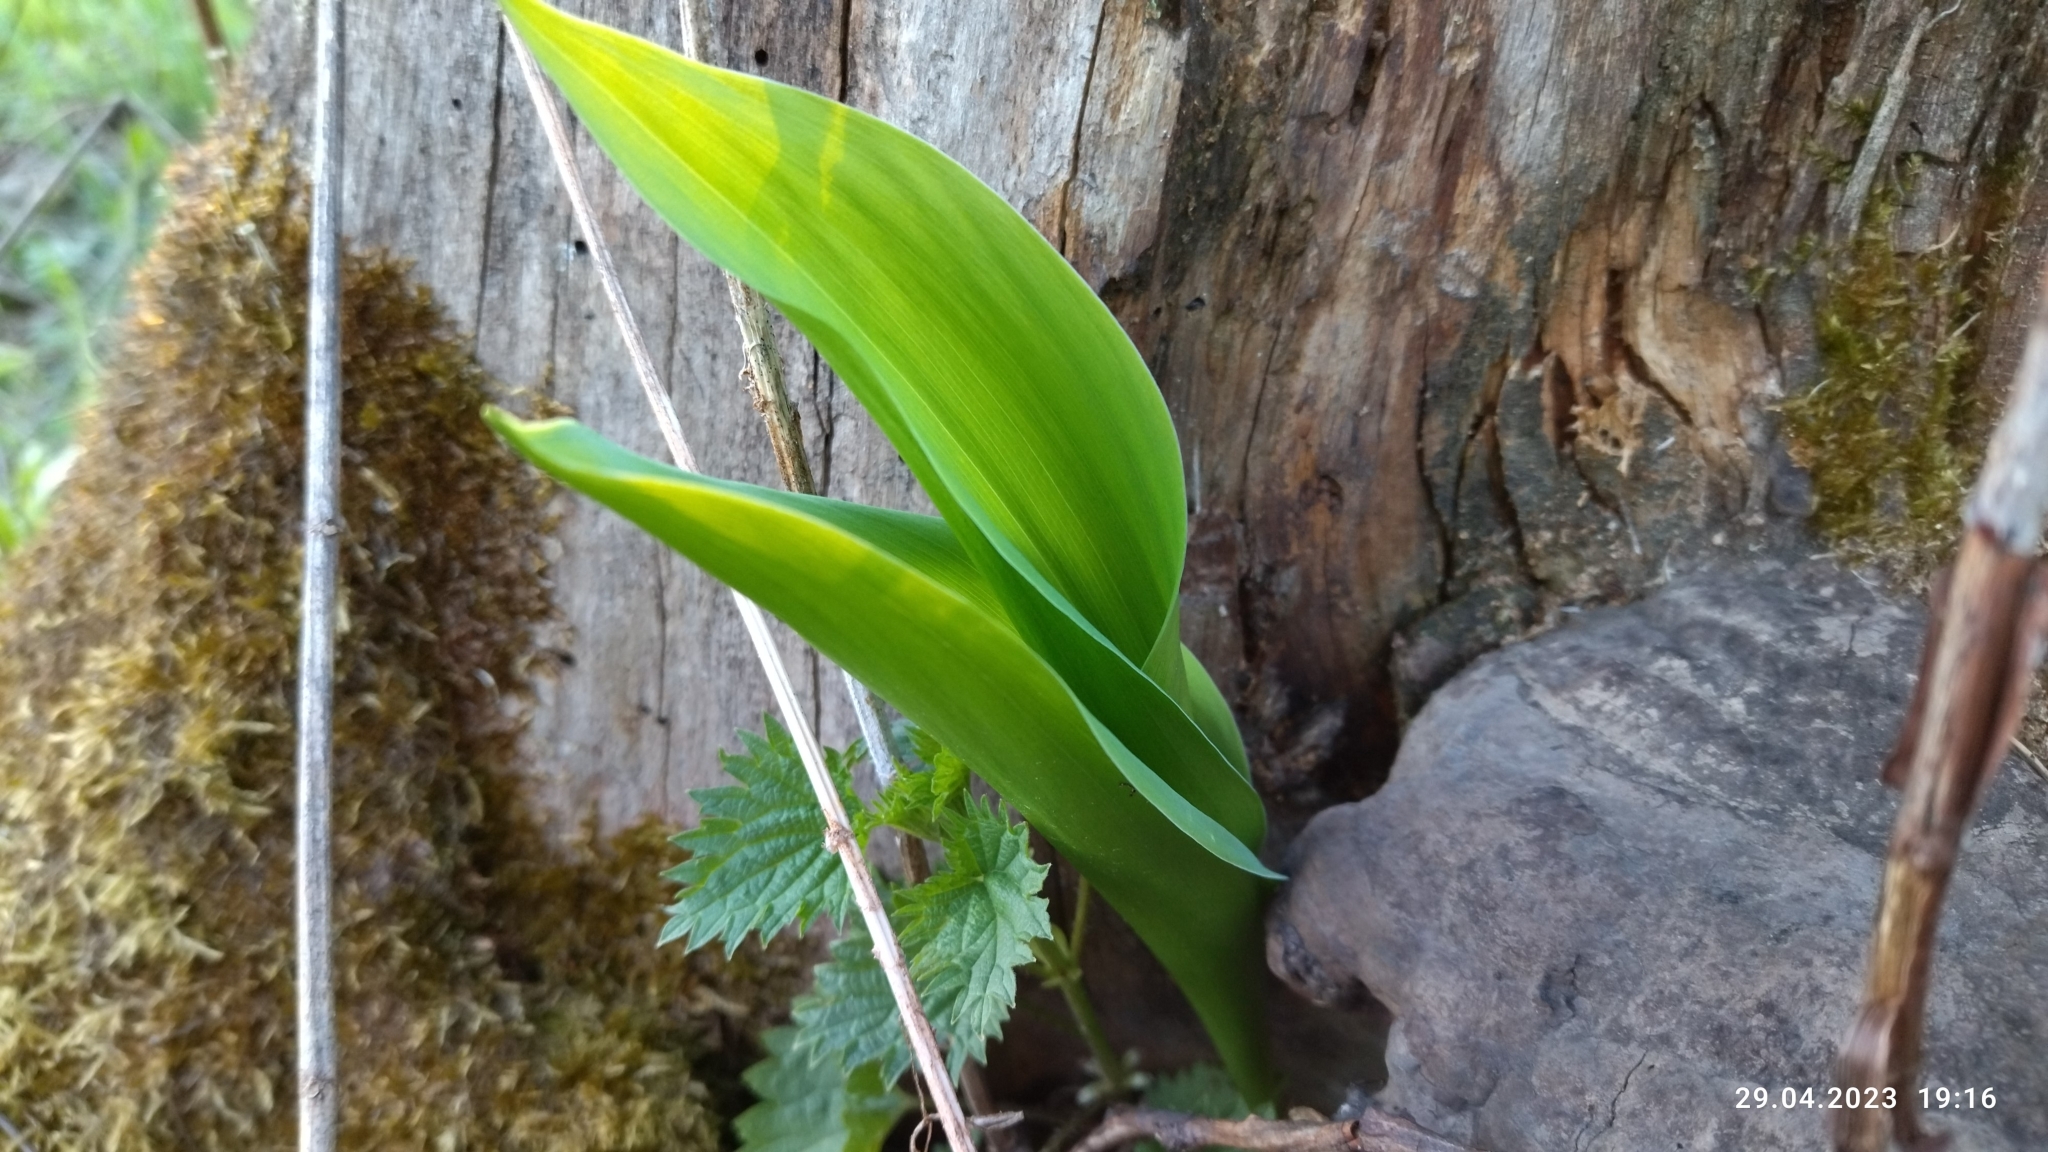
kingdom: Plantae
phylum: Tracheophyta
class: Liliopsida
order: Asparagales
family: Asparagaceae
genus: Convallaria
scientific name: Convallaria majalis
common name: Lily-of-the-valley
